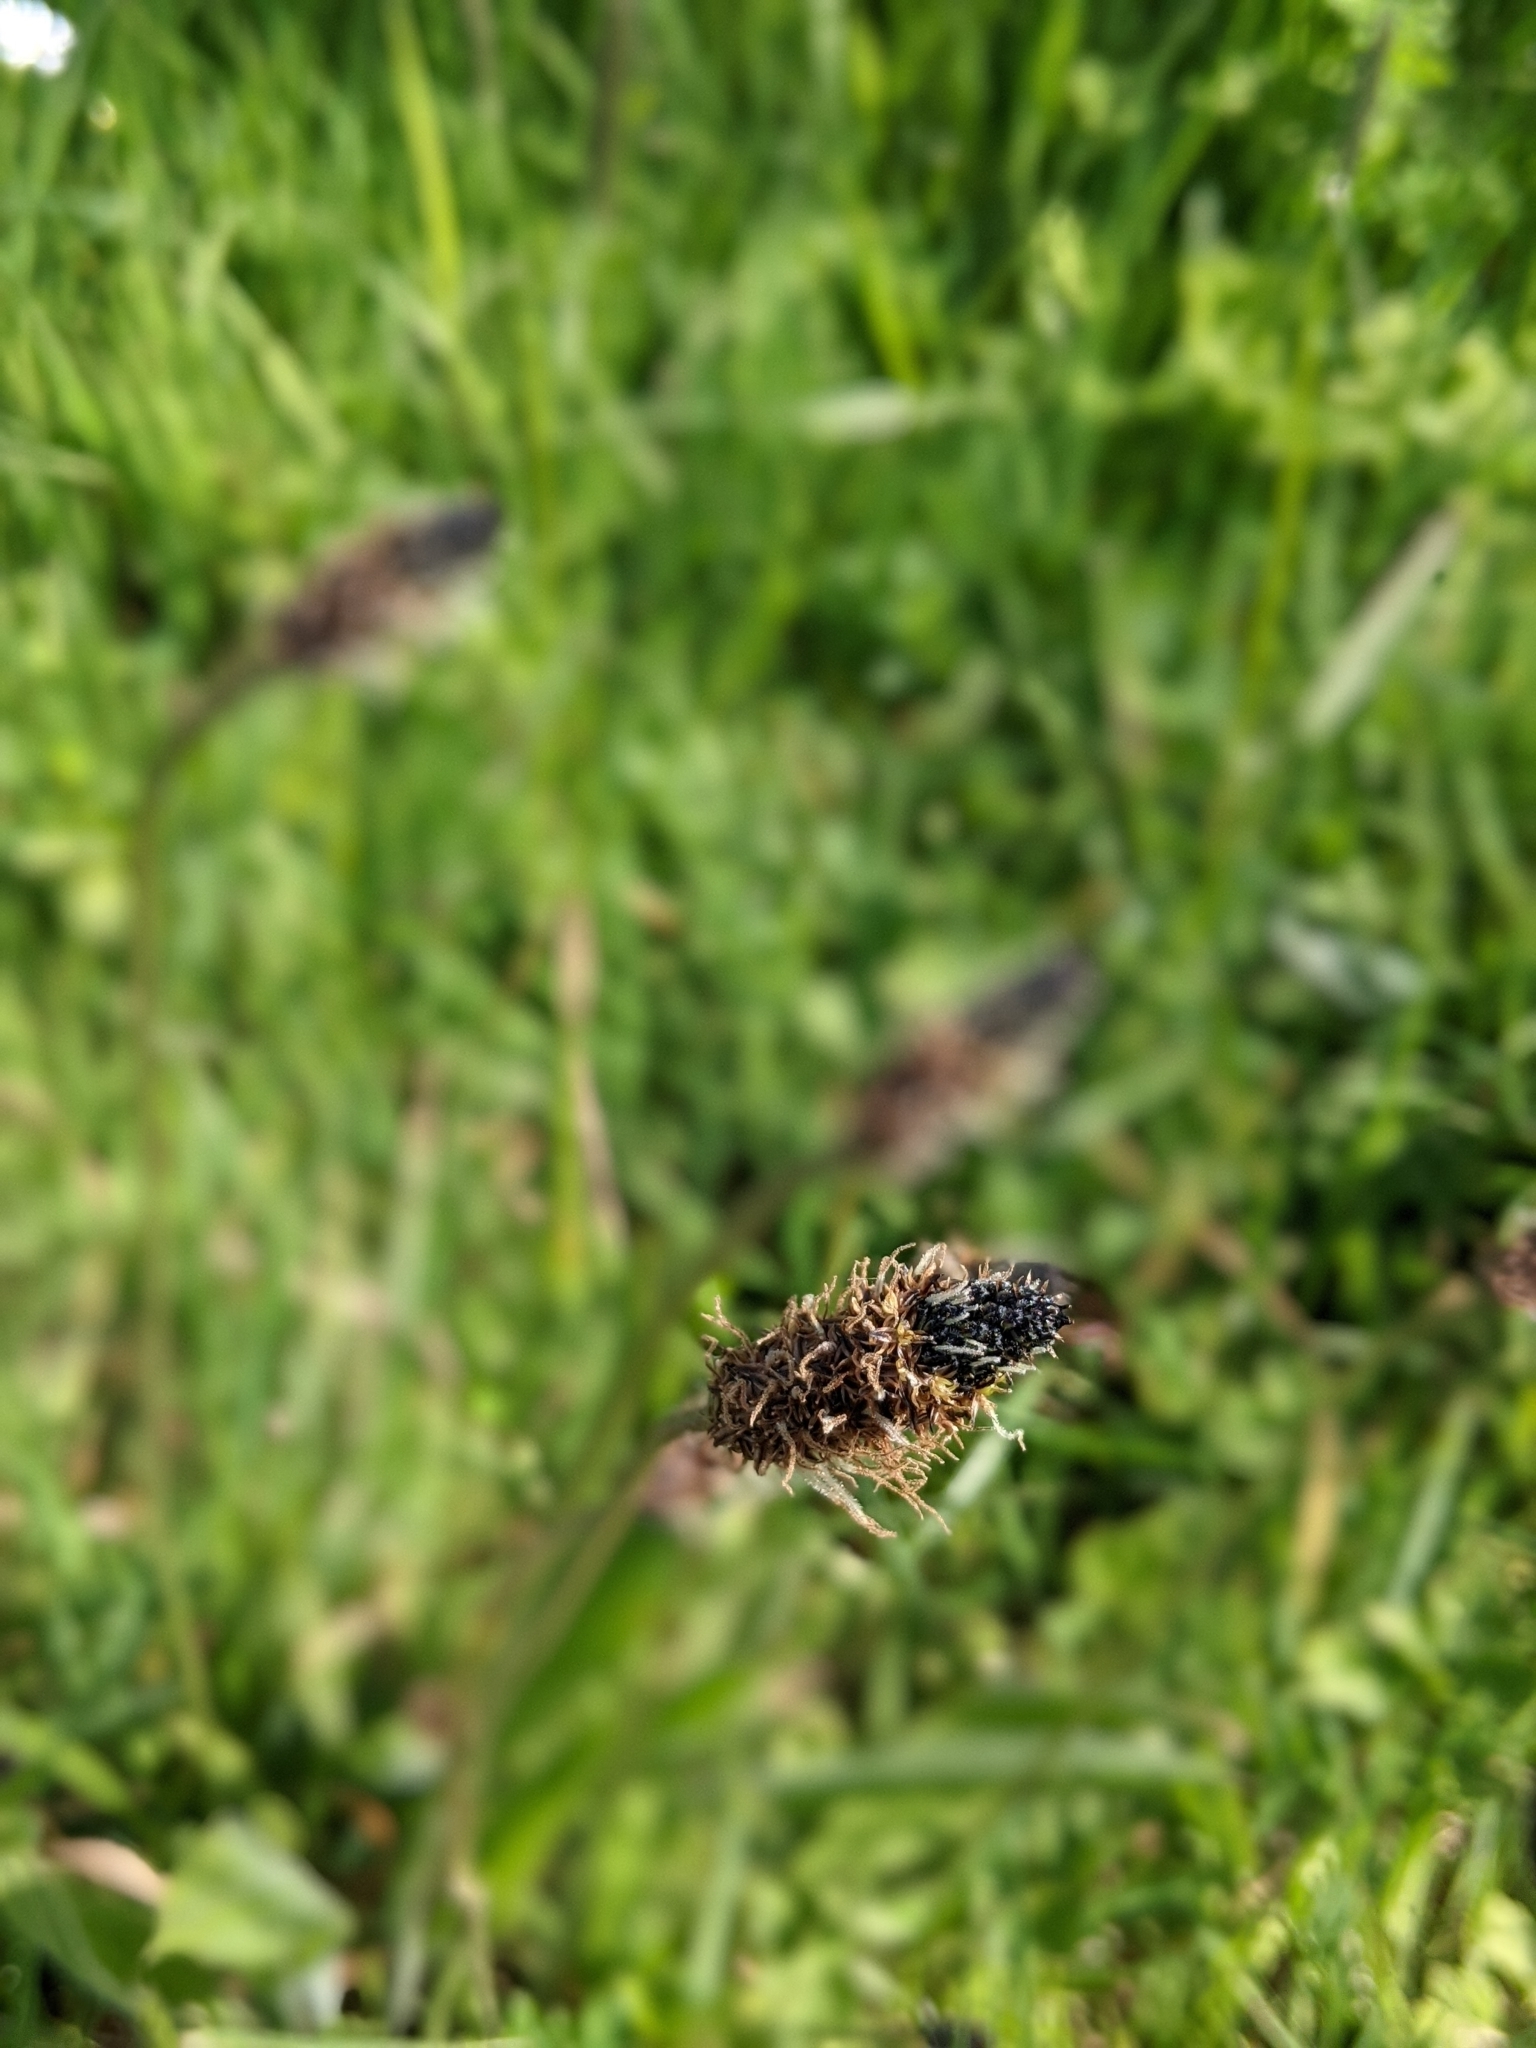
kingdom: Plantae
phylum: Tracheophyta
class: Magnoliopsida
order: Lamiales
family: Plantaginaceae
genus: Plantago
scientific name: Plantago lanceolata
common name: Ribwort plantain
